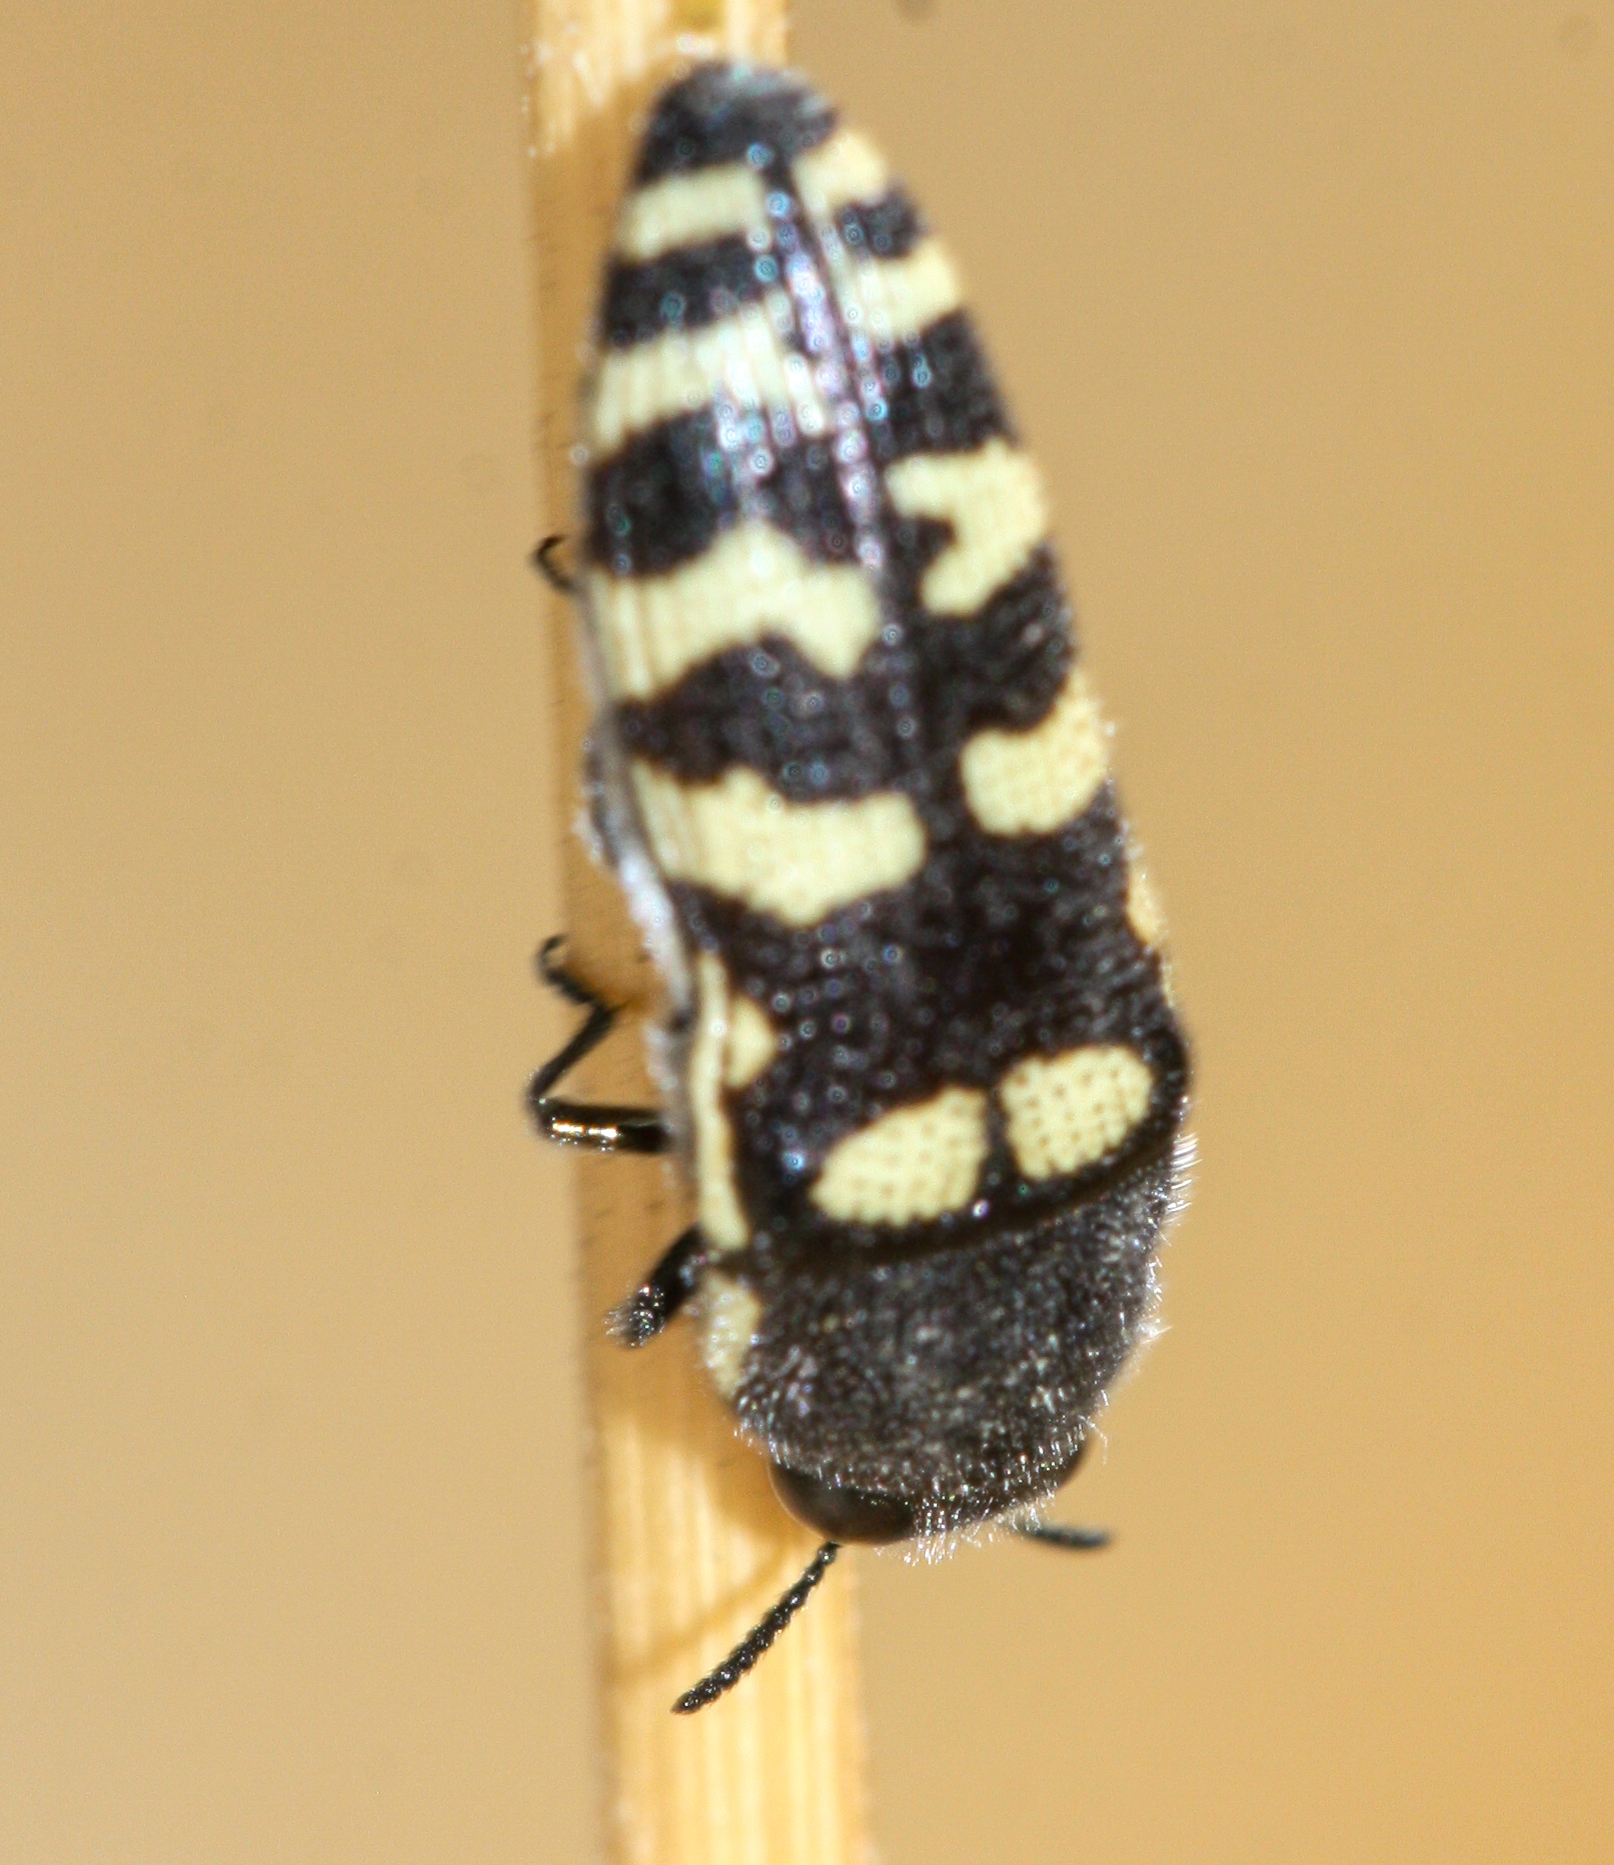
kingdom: Animalia
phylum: Arthropoda
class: Insecta
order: Coleoptera
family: Buprestidae
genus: Acmaeodera
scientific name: Acmaeodera alicia
